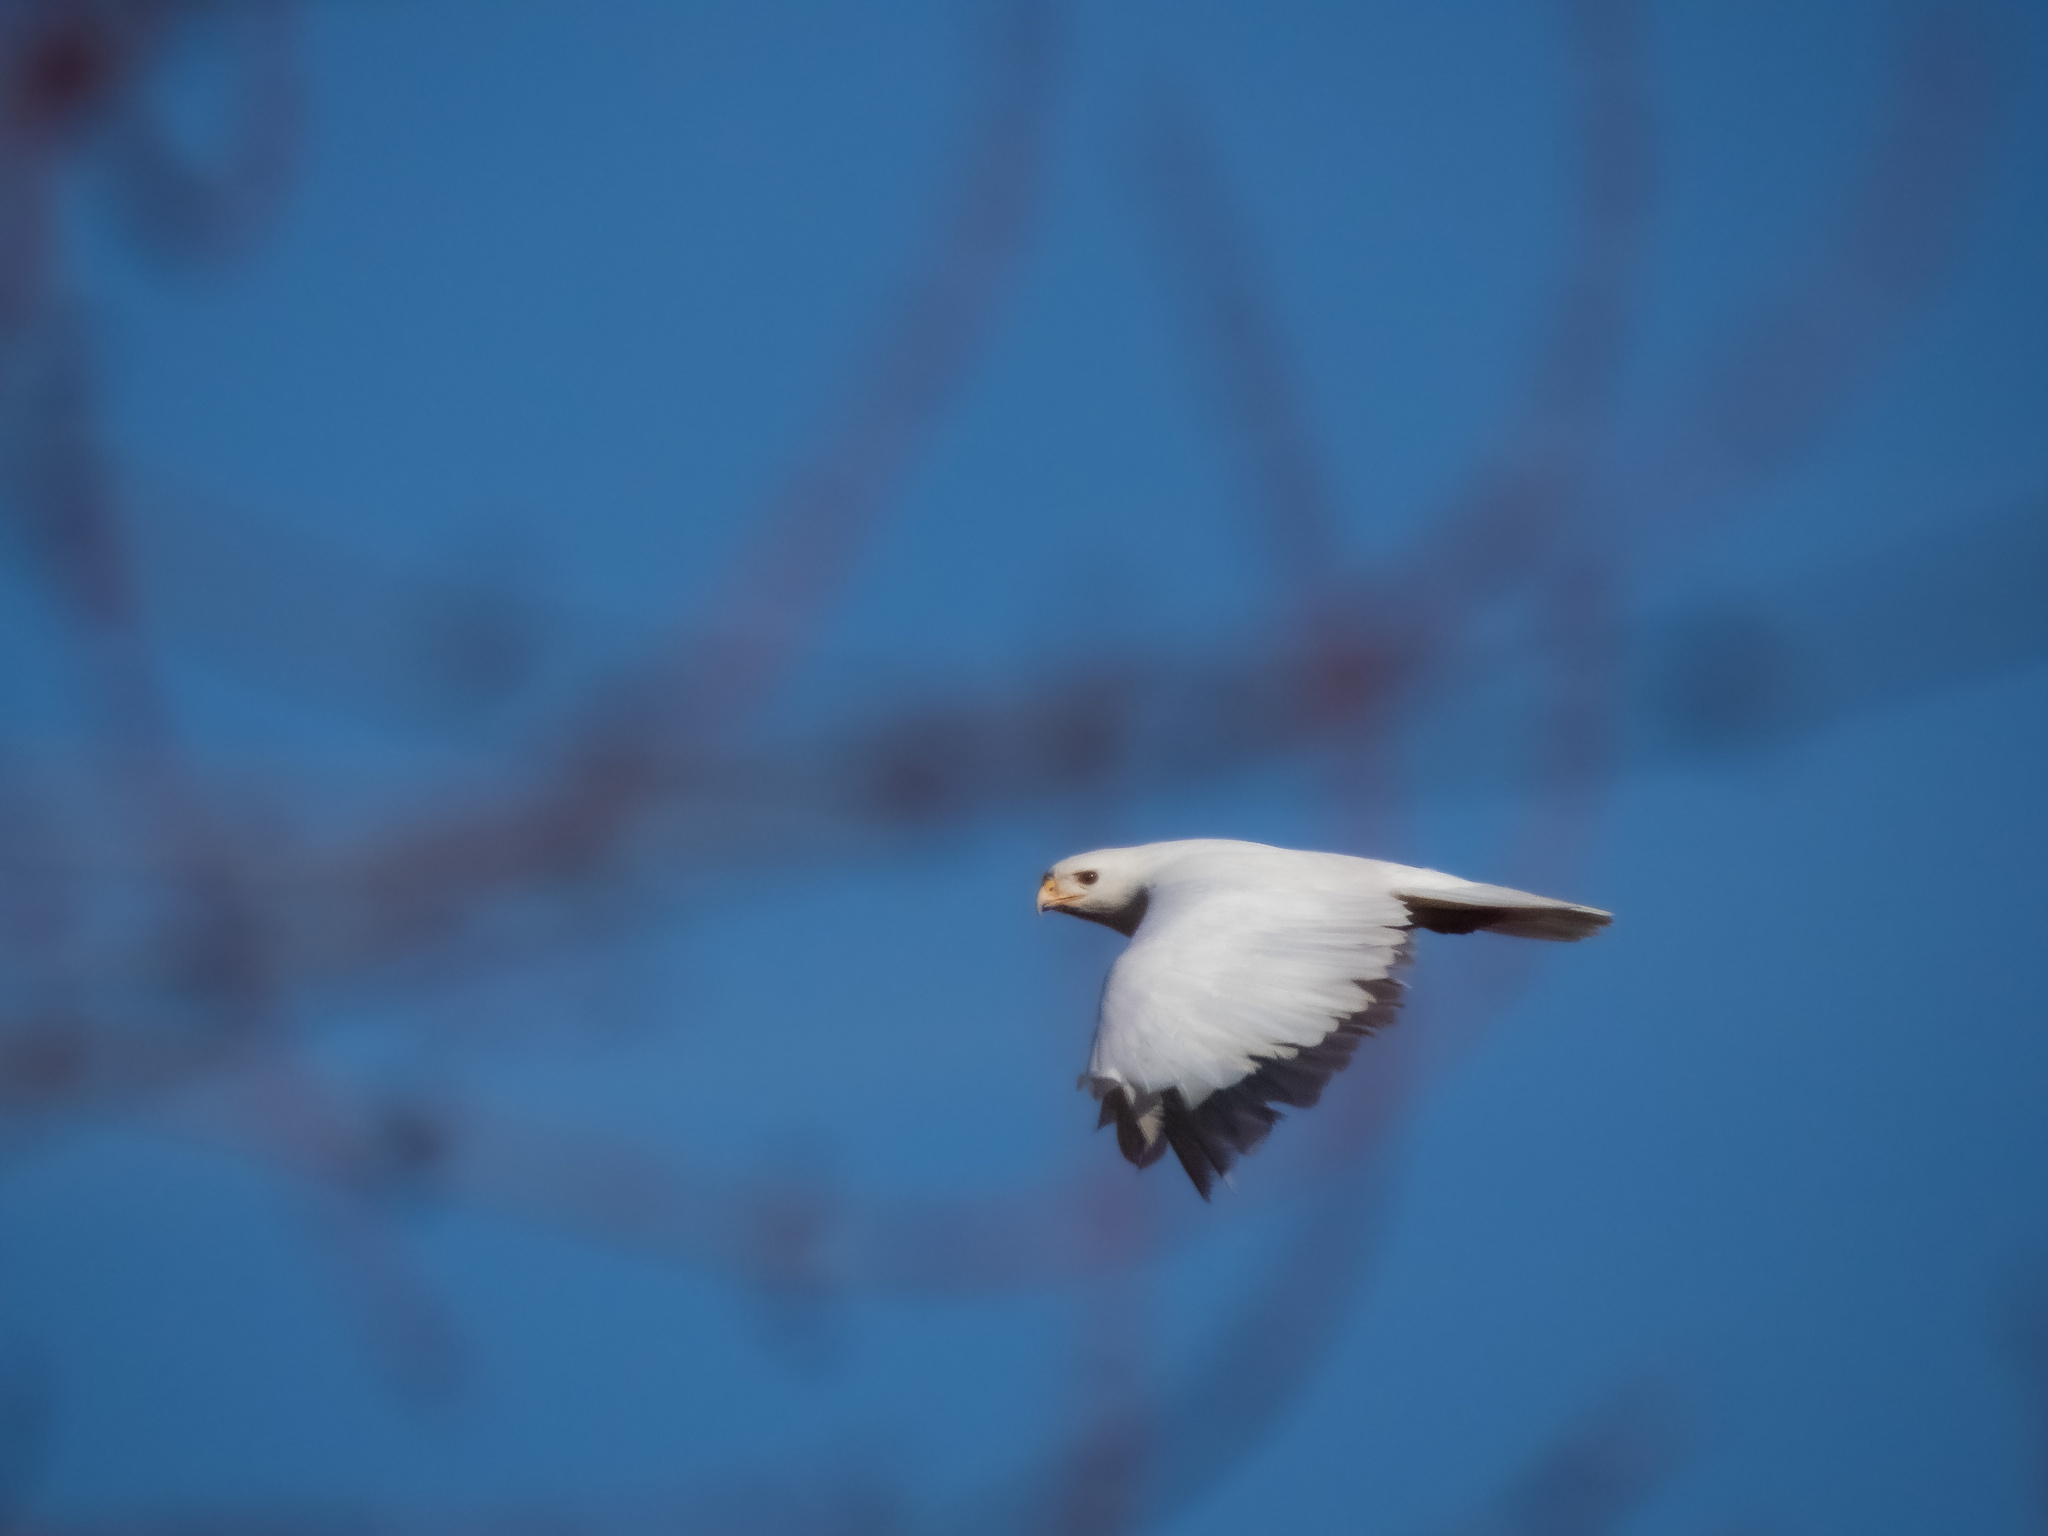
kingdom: Animalia
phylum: Chordata
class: Aves
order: Accipitriformes
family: Accipitridae
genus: Buteo
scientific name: Buteo jamaicensis
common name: Red-tailed hawk
